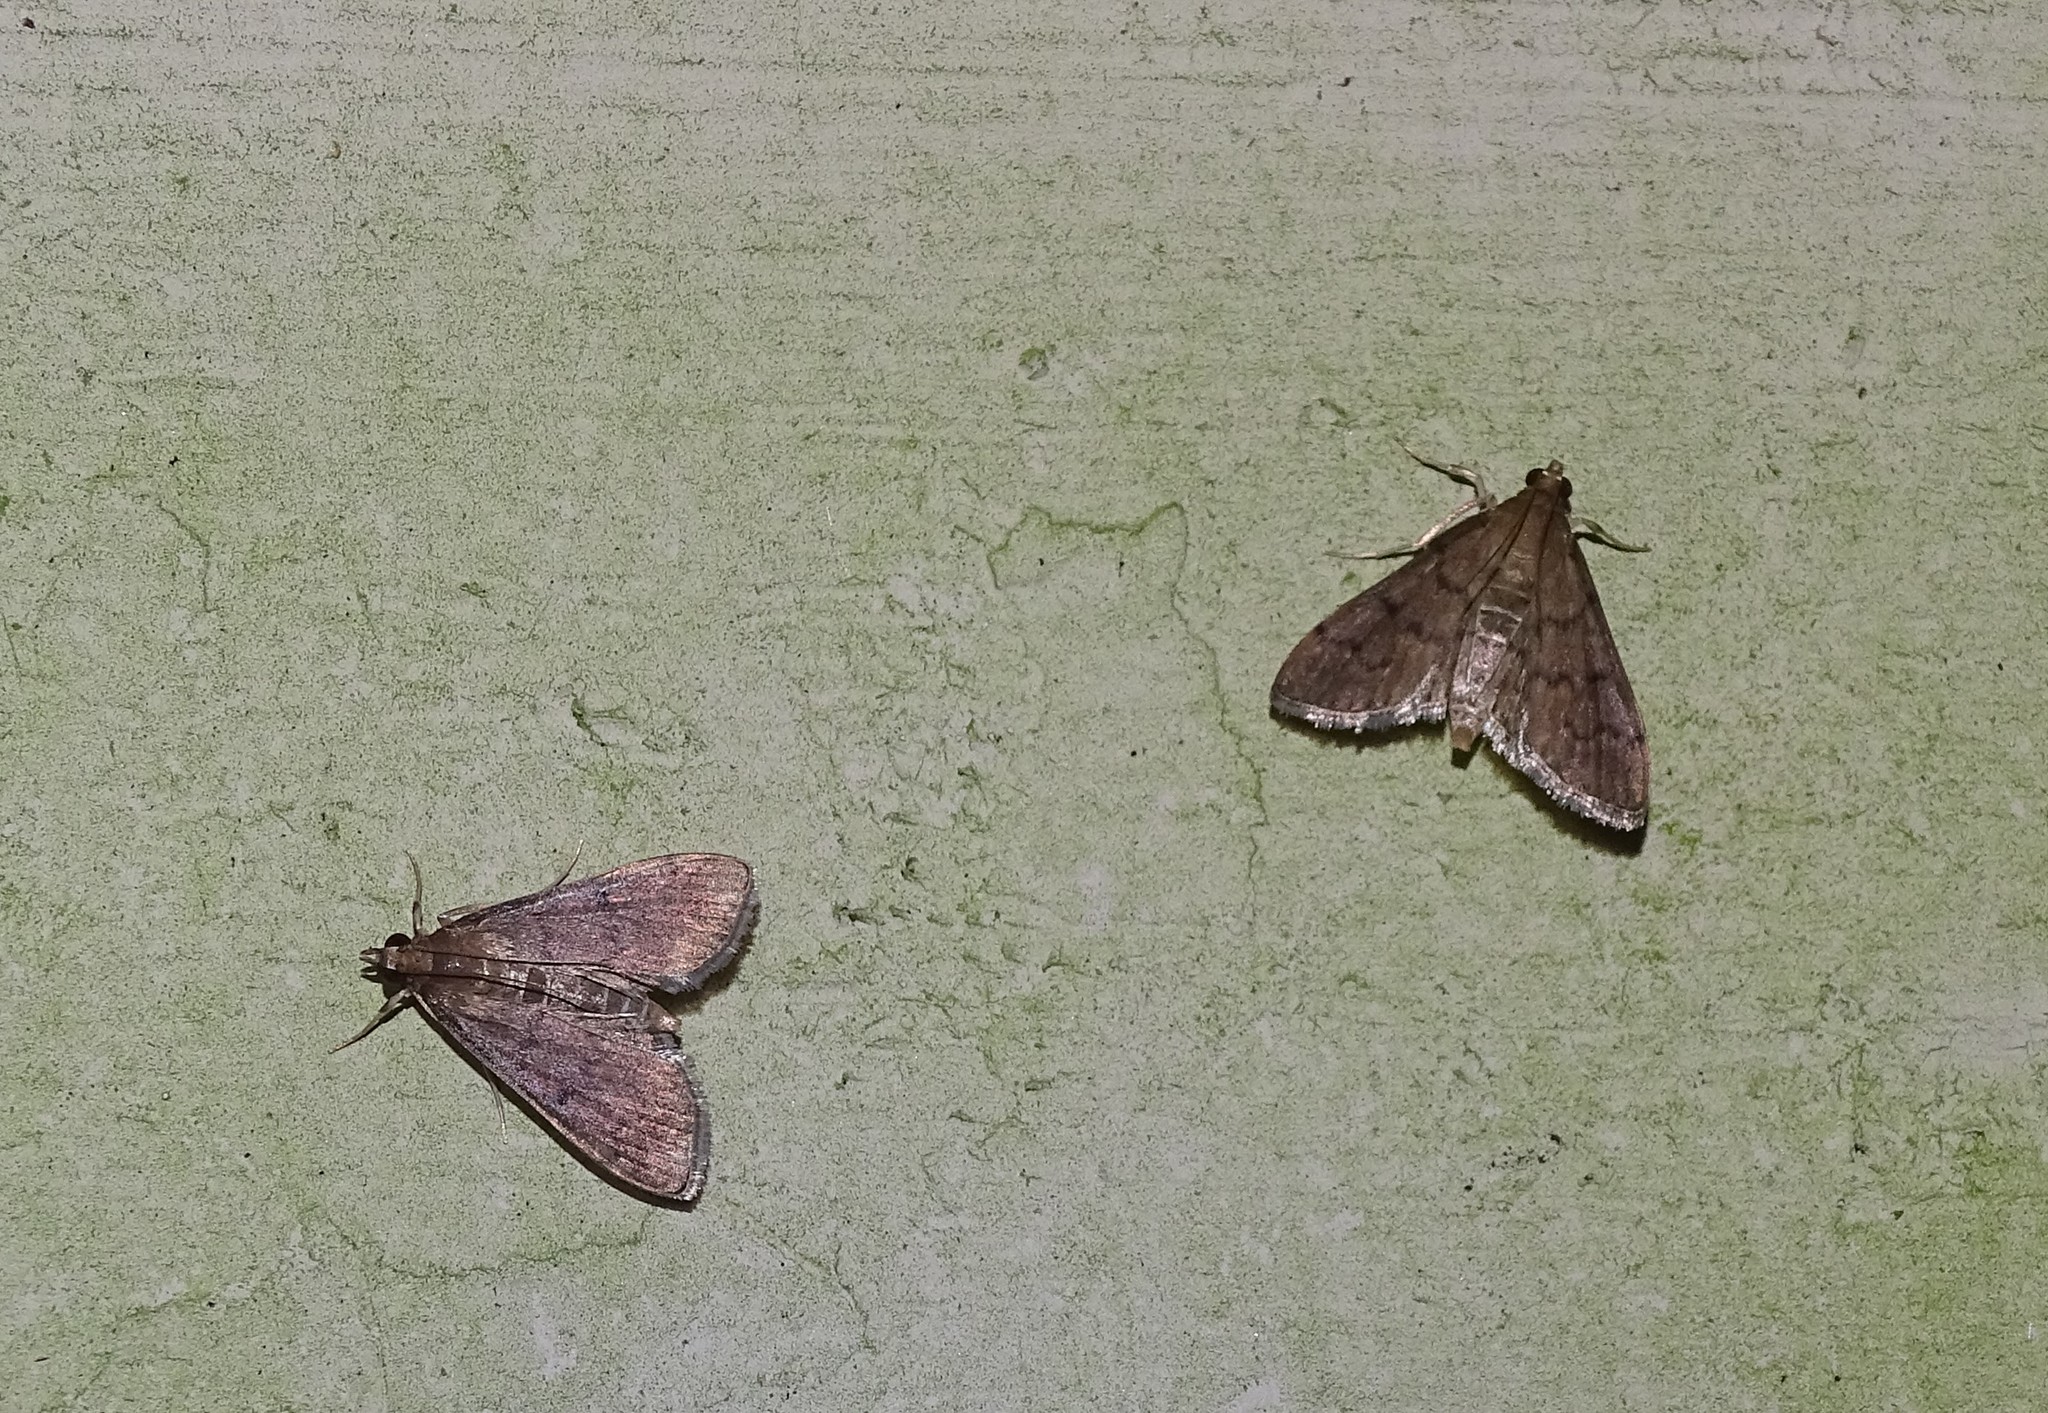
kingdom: Animalia
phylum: Arthropoda
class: Insecta
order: Lepidoptera
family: Crambidae
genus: Herpetogramma
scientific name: Herpetogramma phaeopteralis
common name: Dusky herpetogramma moth
